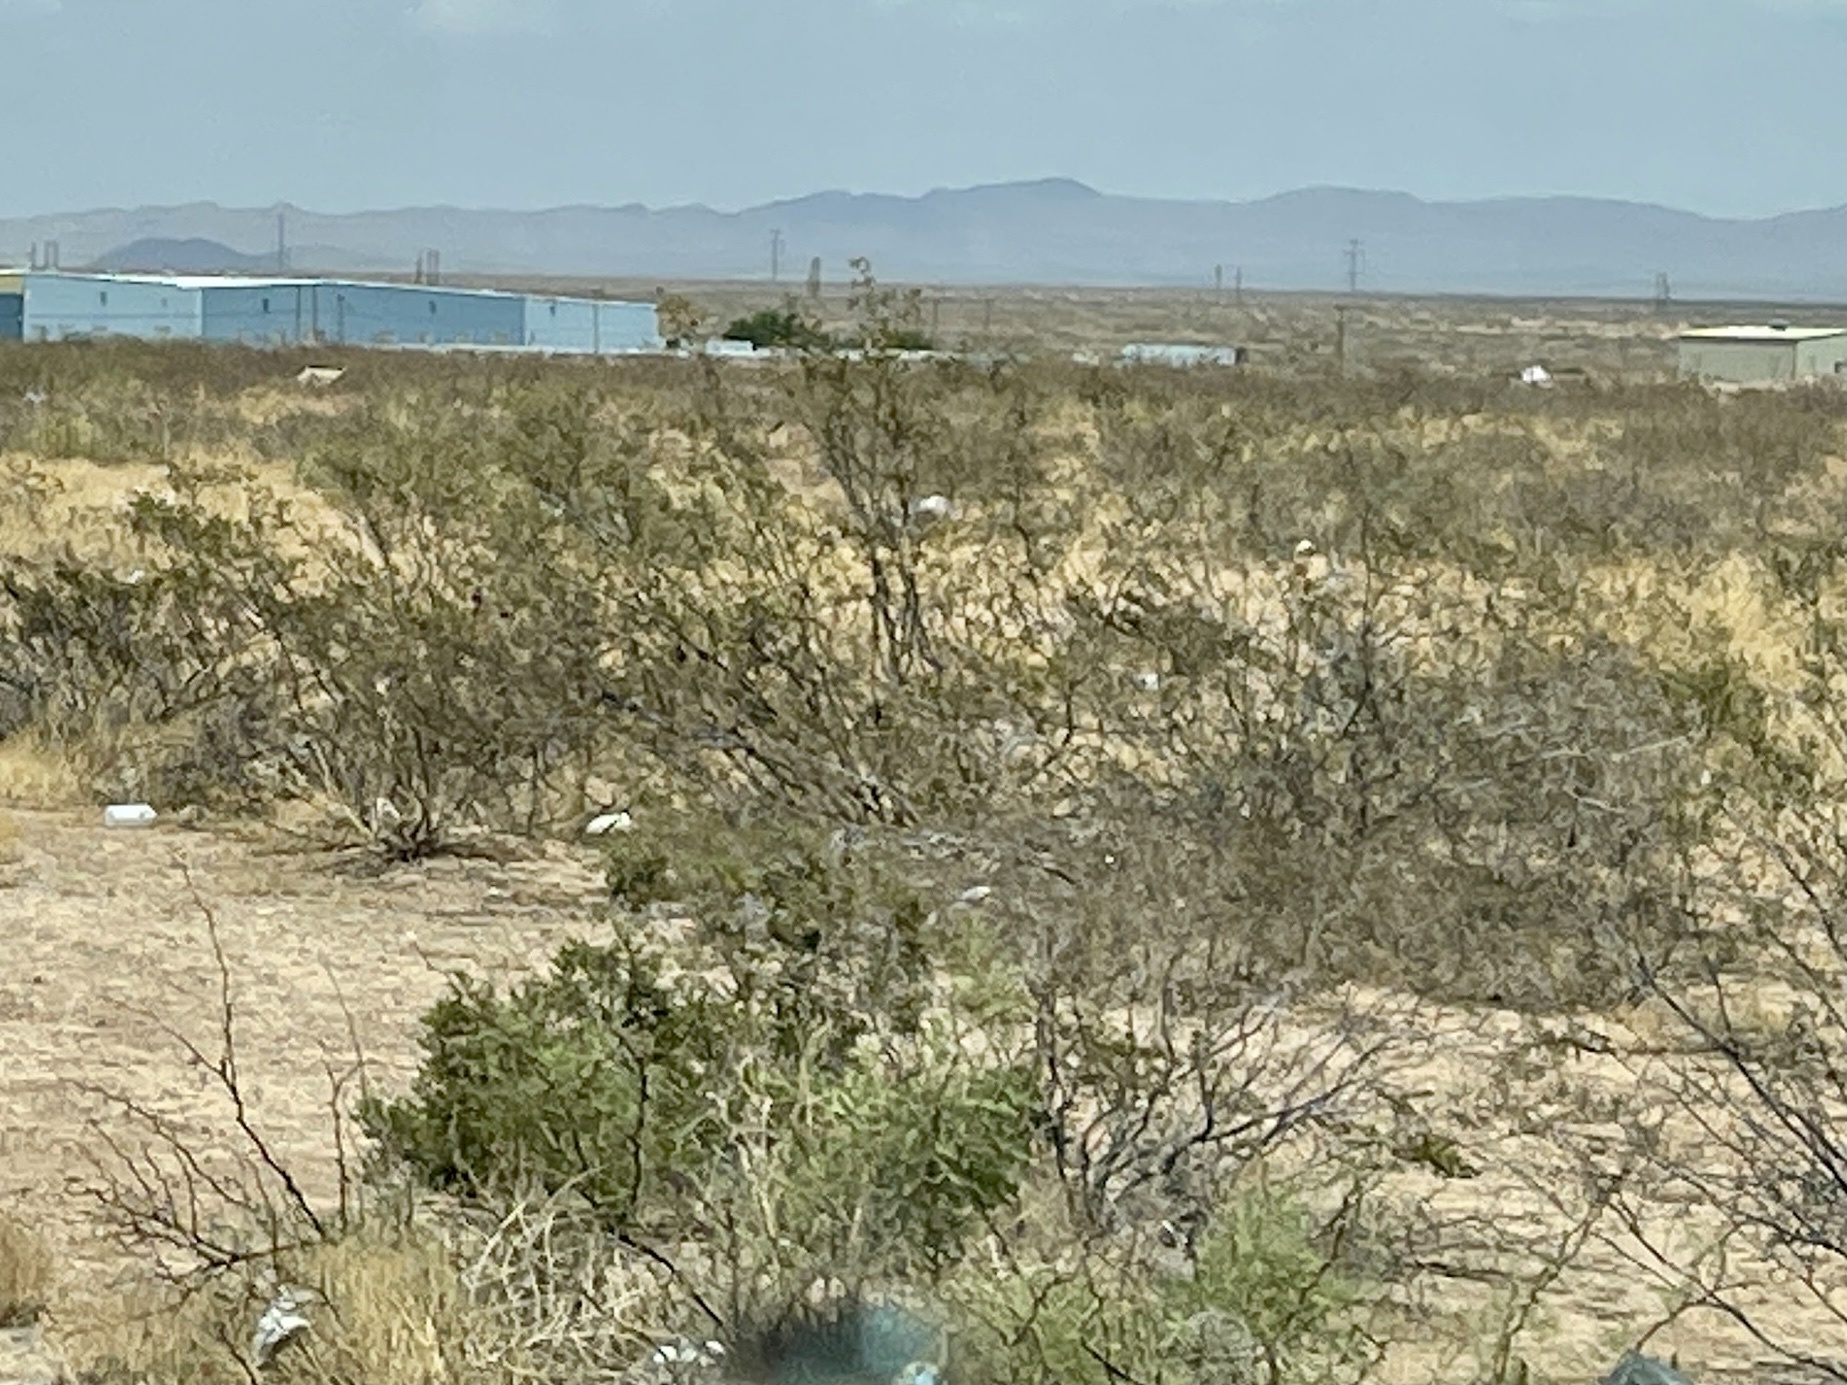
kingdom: Plantae
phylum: Tracheophyta
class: Magnoliopsida
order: Zygophyllales
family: Zygophyllaceae
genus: Larrea
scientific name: Larrea tridentata
